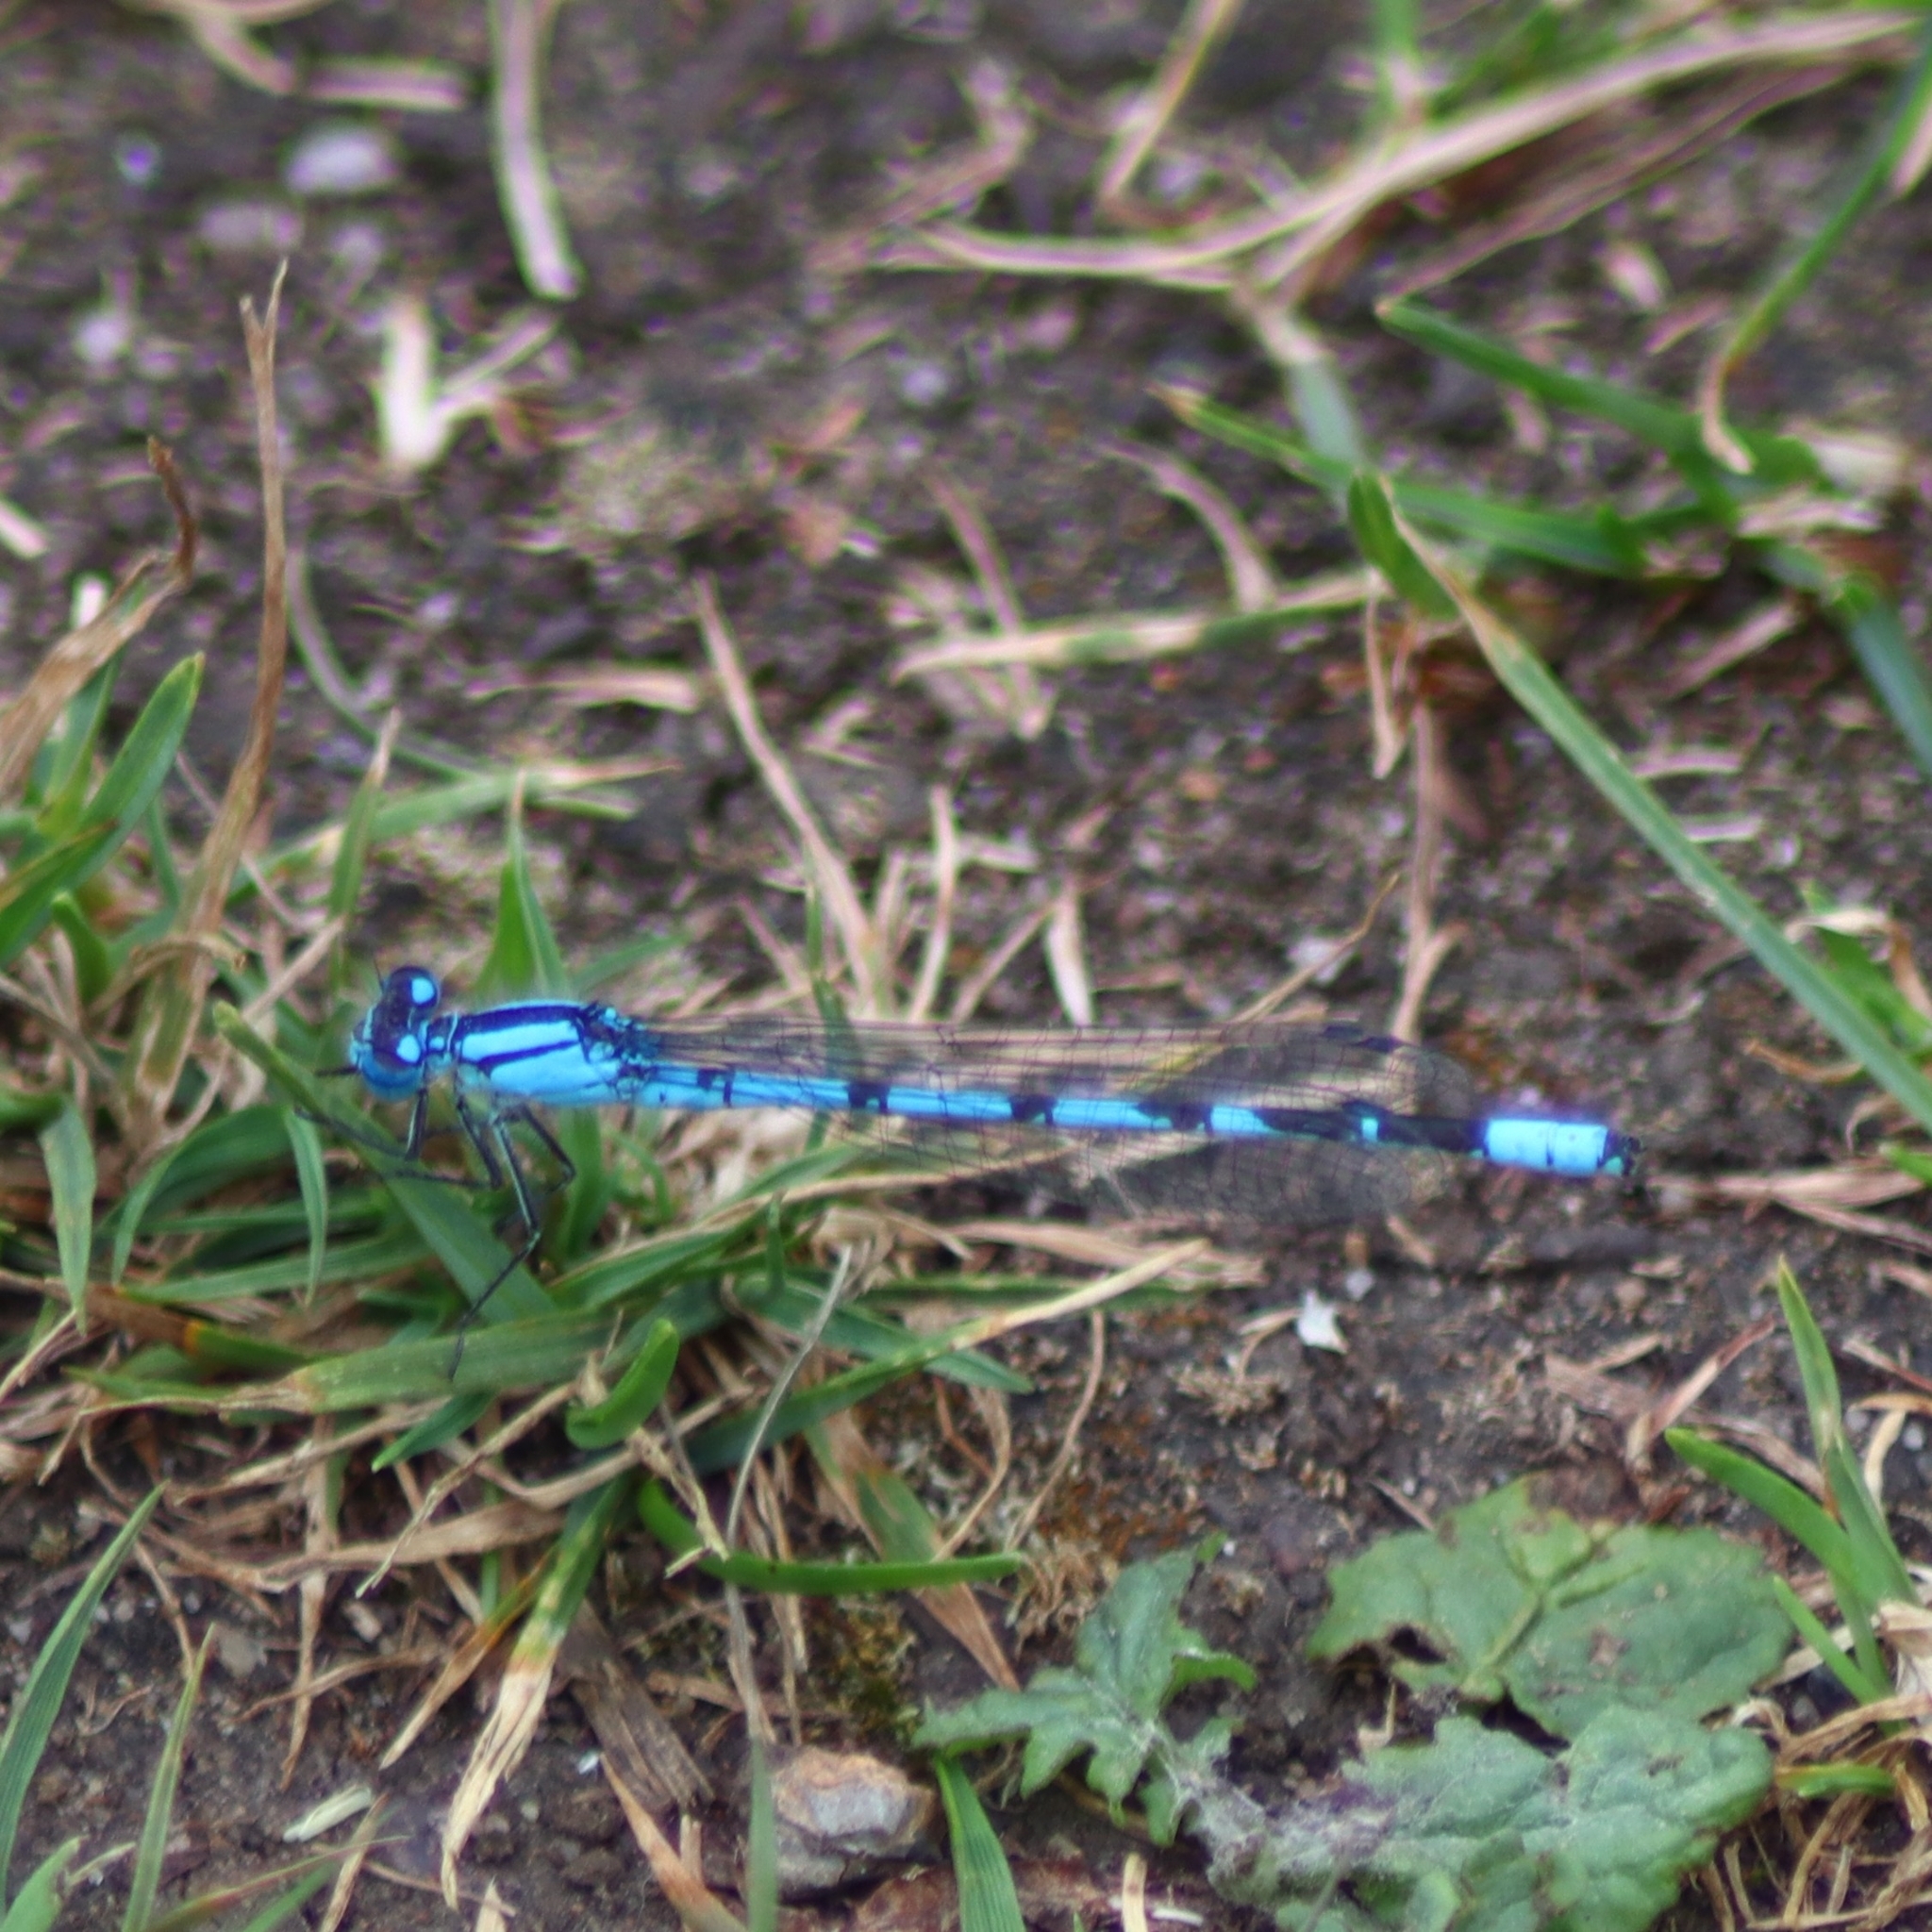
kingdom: Animalia
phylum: Arthropoda
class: Insecta
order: Odonata
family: Coenagrionidae
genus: Enallagma
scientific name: Enallagma cyathigerum
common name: Common blue damselfly
